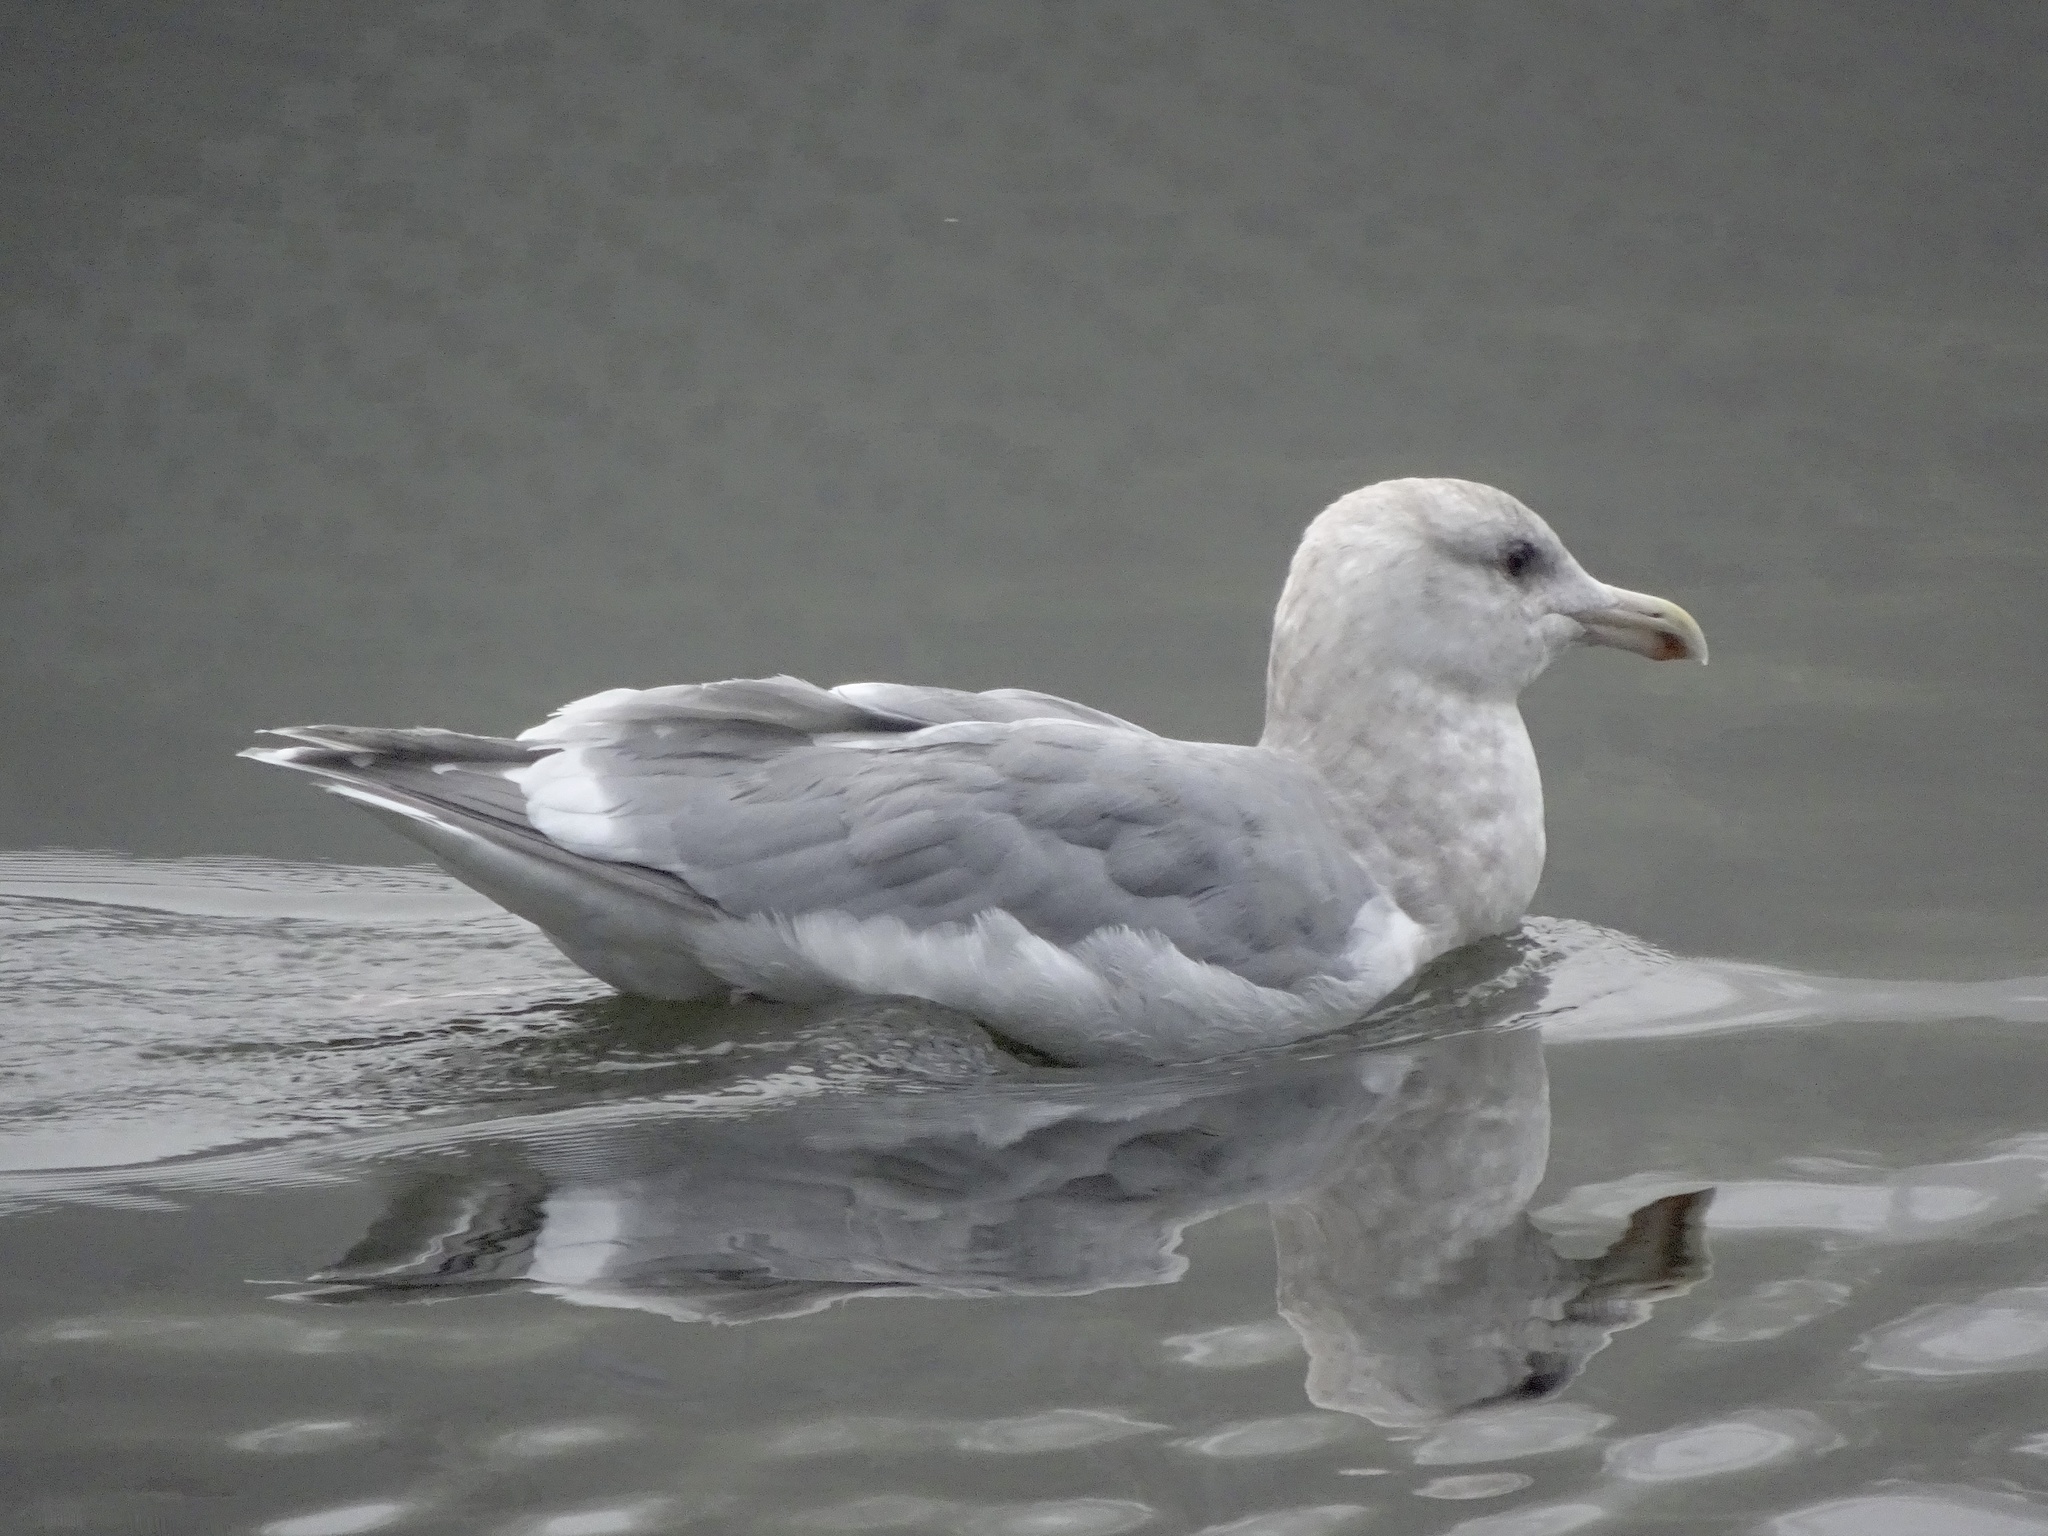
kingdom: Animalia
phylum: Chordata
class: Aves
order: Charadriiformes
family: Laridae
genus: Larus
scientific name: Larus glaucescens
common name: Glaucous-winged gull
